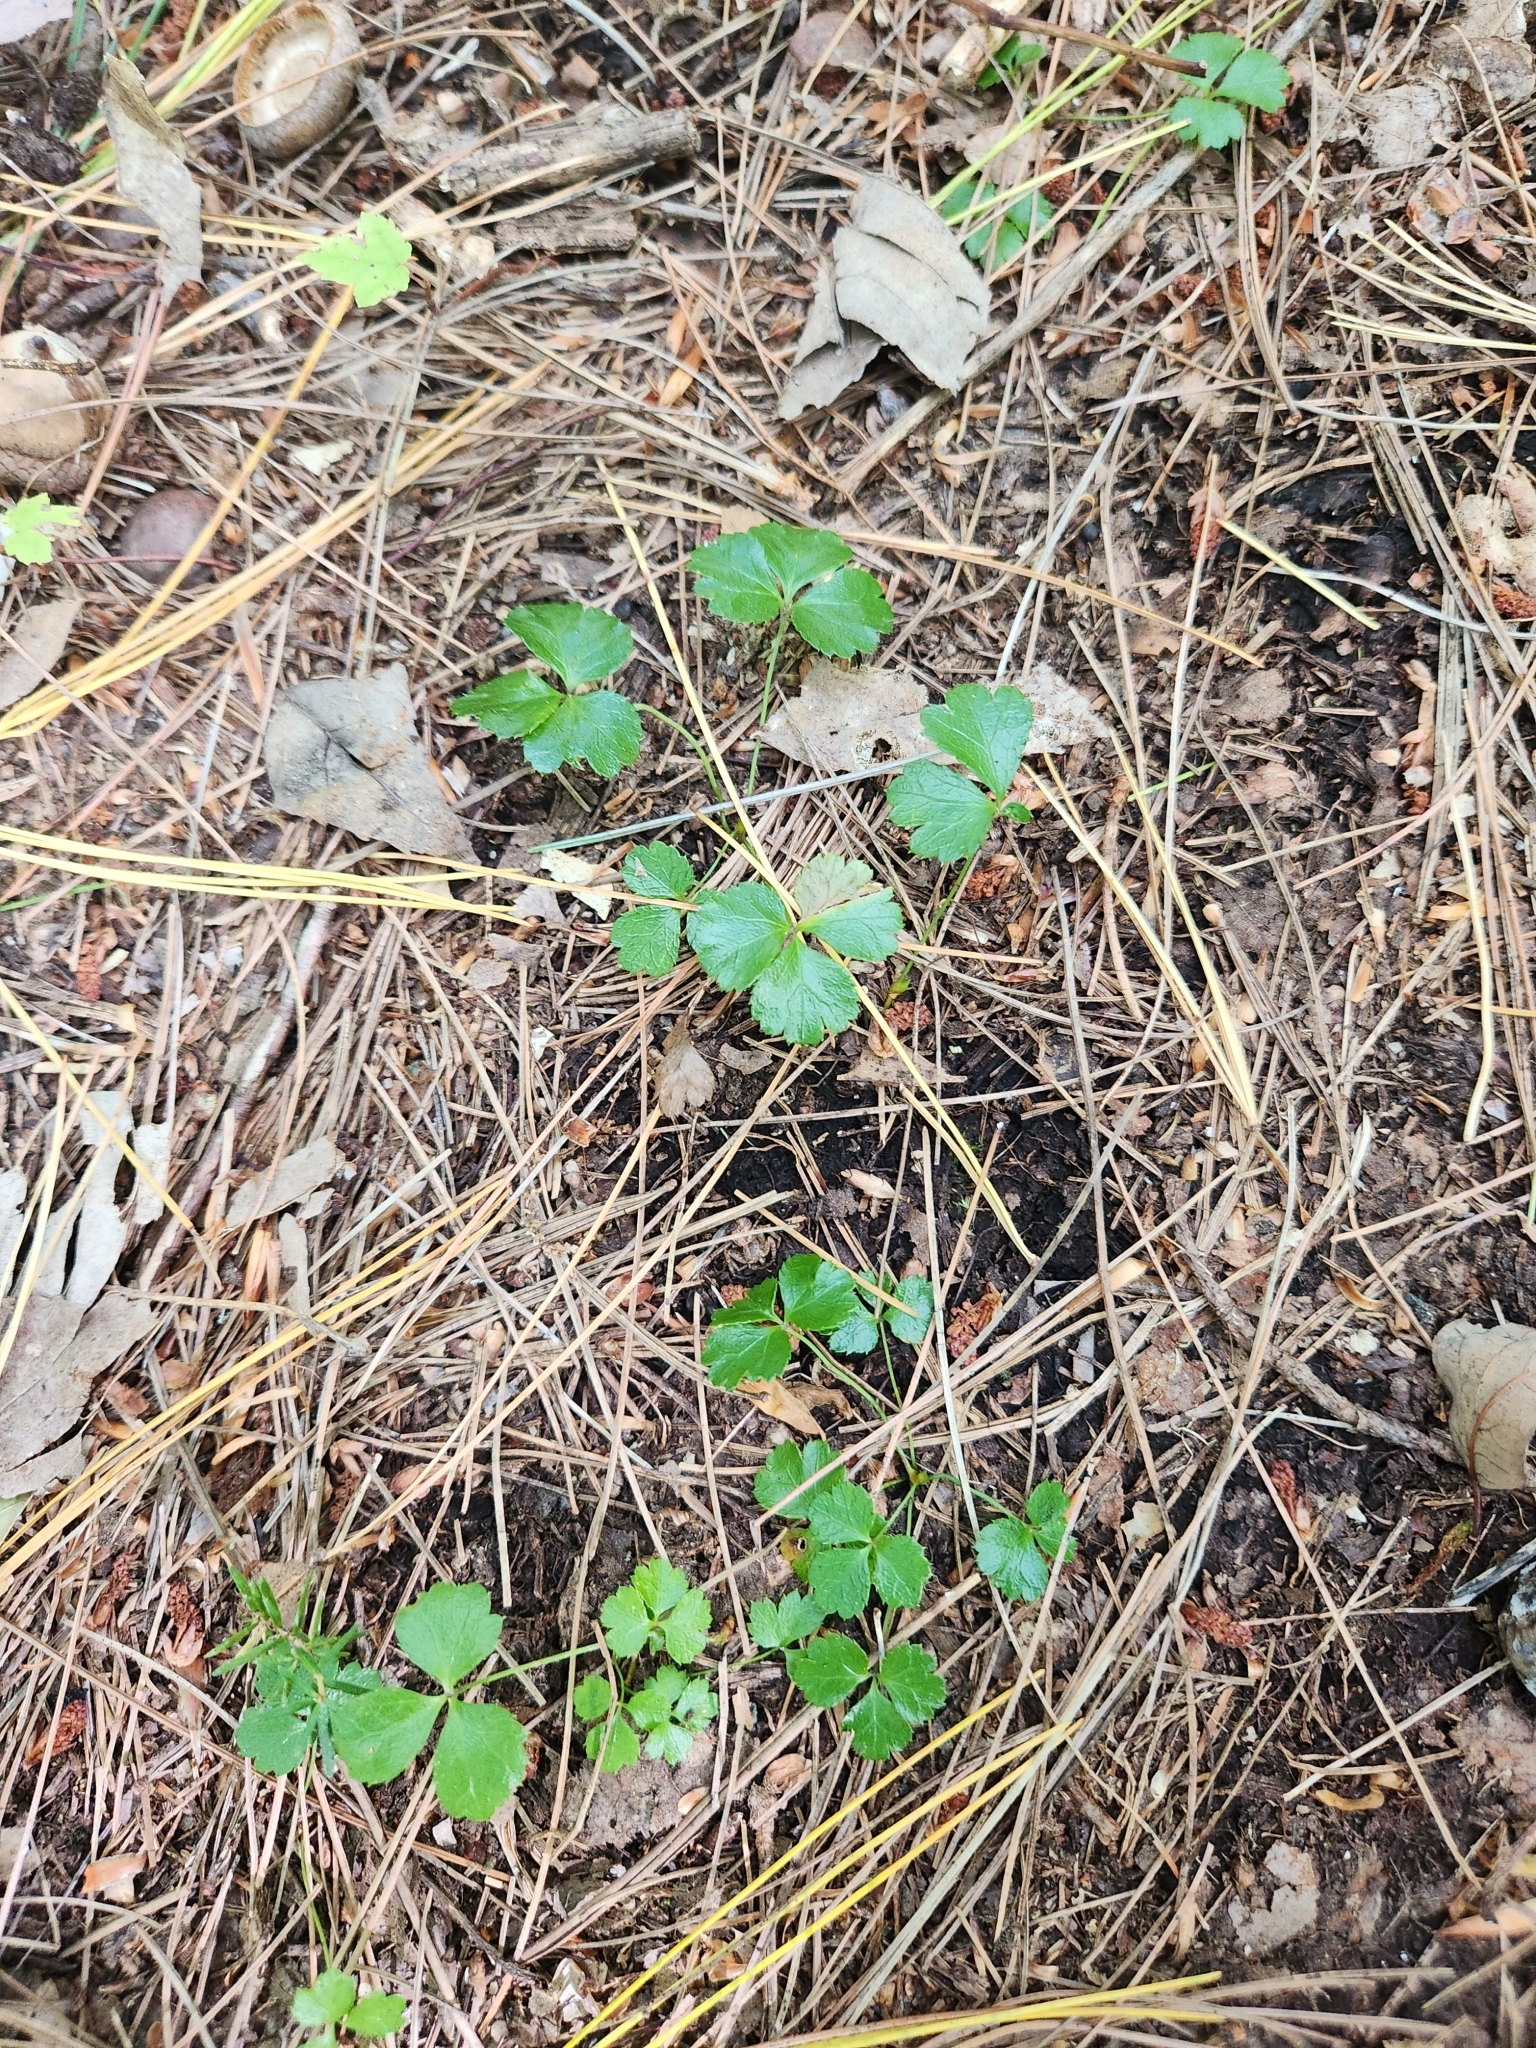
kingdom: Plantae
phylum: Tracheophyta
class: Magnoliopsida
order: Ranunculales
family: Ranunculaceae
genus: Coptis
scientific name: Coptis trifolia
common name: Canker-root
